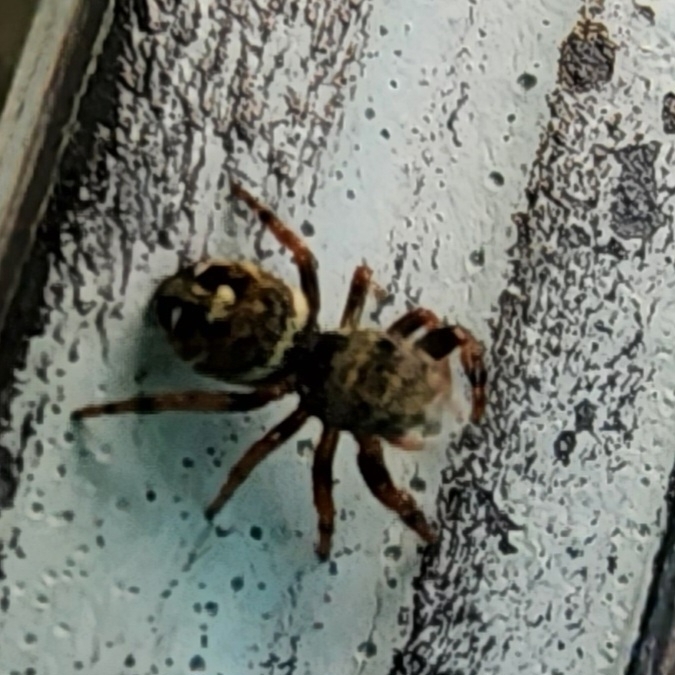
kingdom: Animalia
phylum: Arthropoda
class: Arachnida
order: Araneae
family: Salticidae
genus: Phidippus
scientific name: Phidippus audax
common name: Bold jumper
